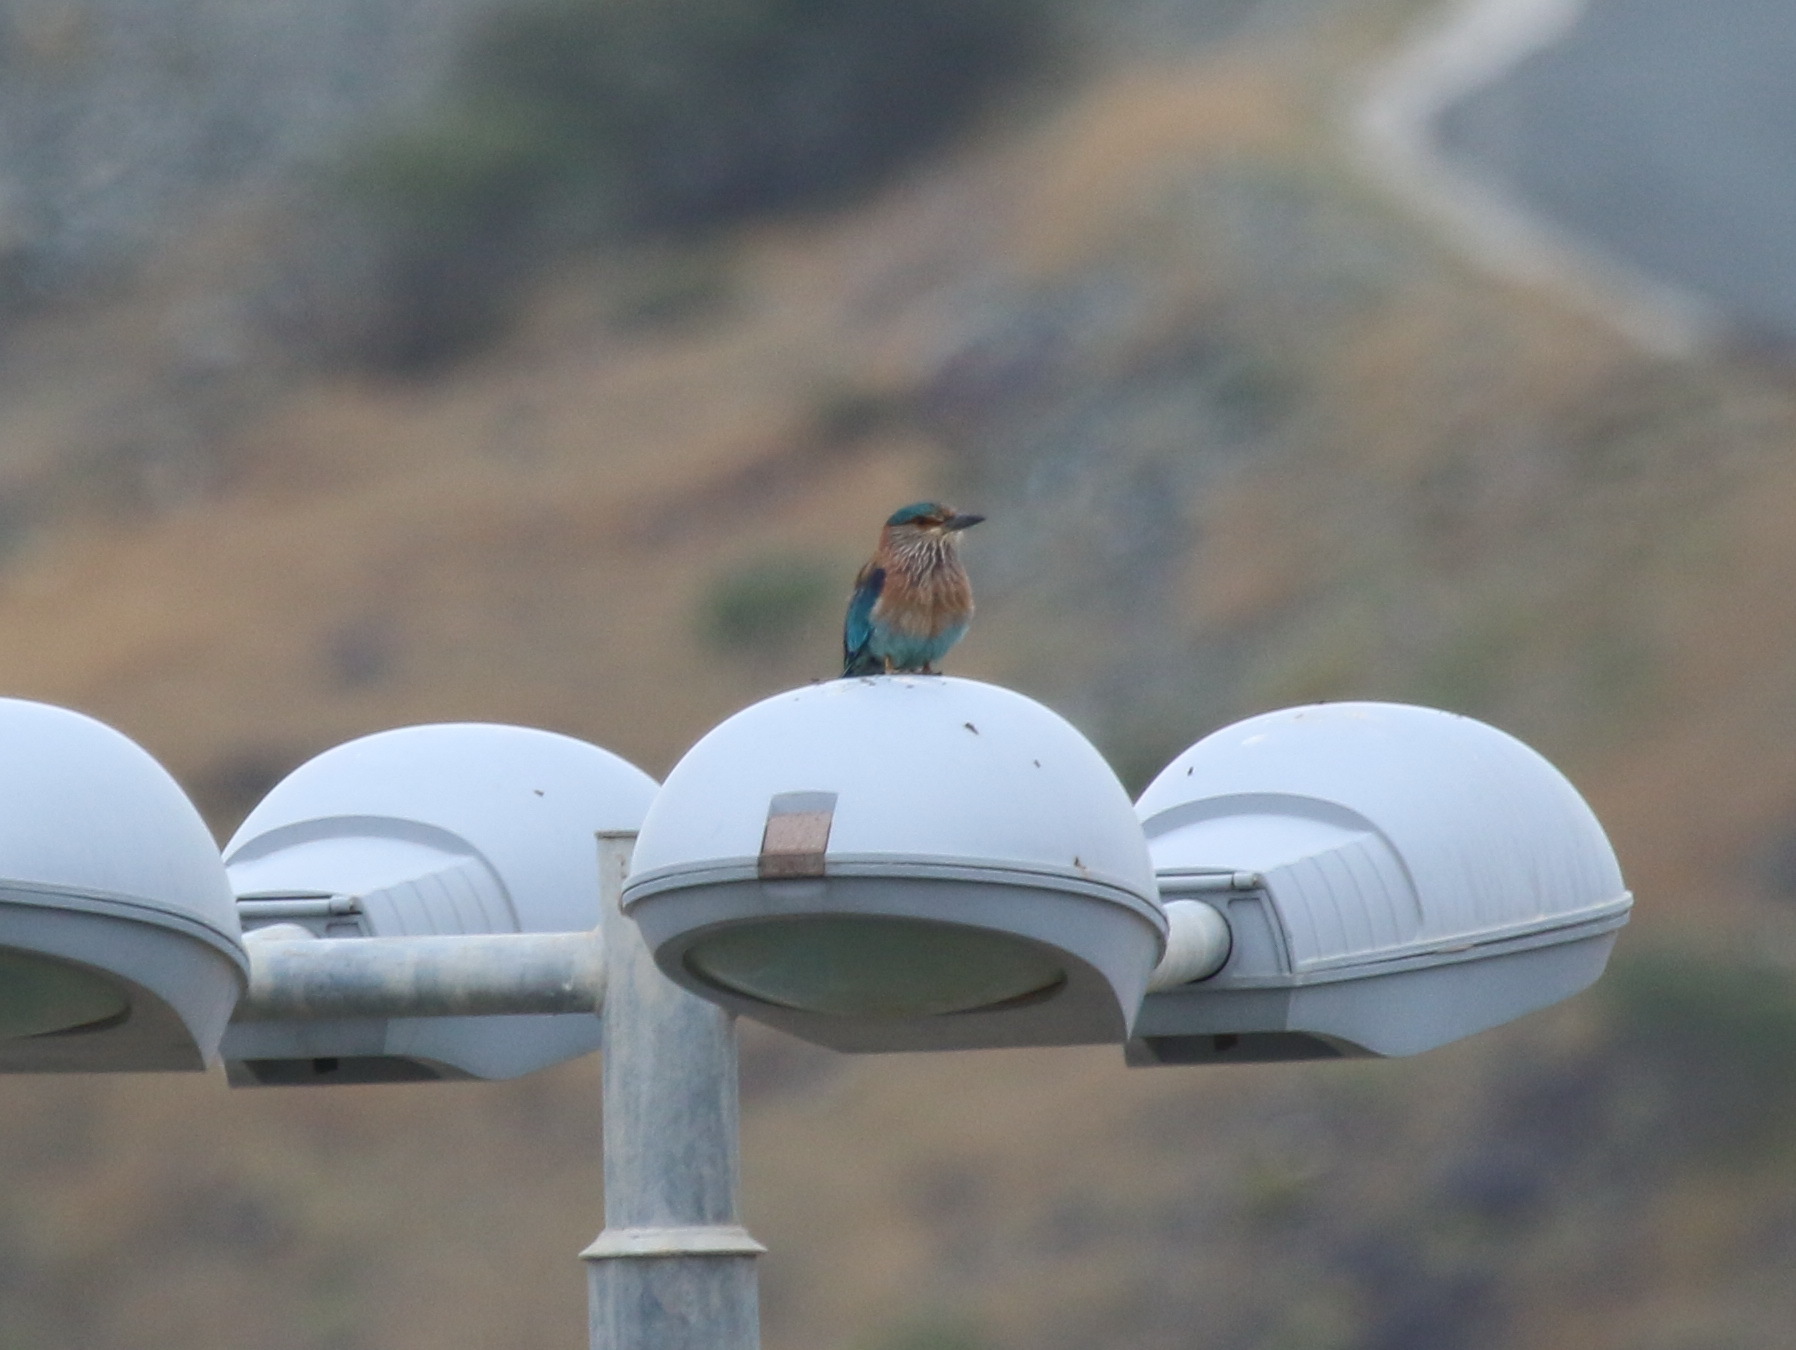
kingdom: Animalia
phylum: Chordata
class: Aves
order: Coraciiformes
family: Coraciidae
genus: Coracias
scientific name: Coracias benghalensis
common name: Indian roller
